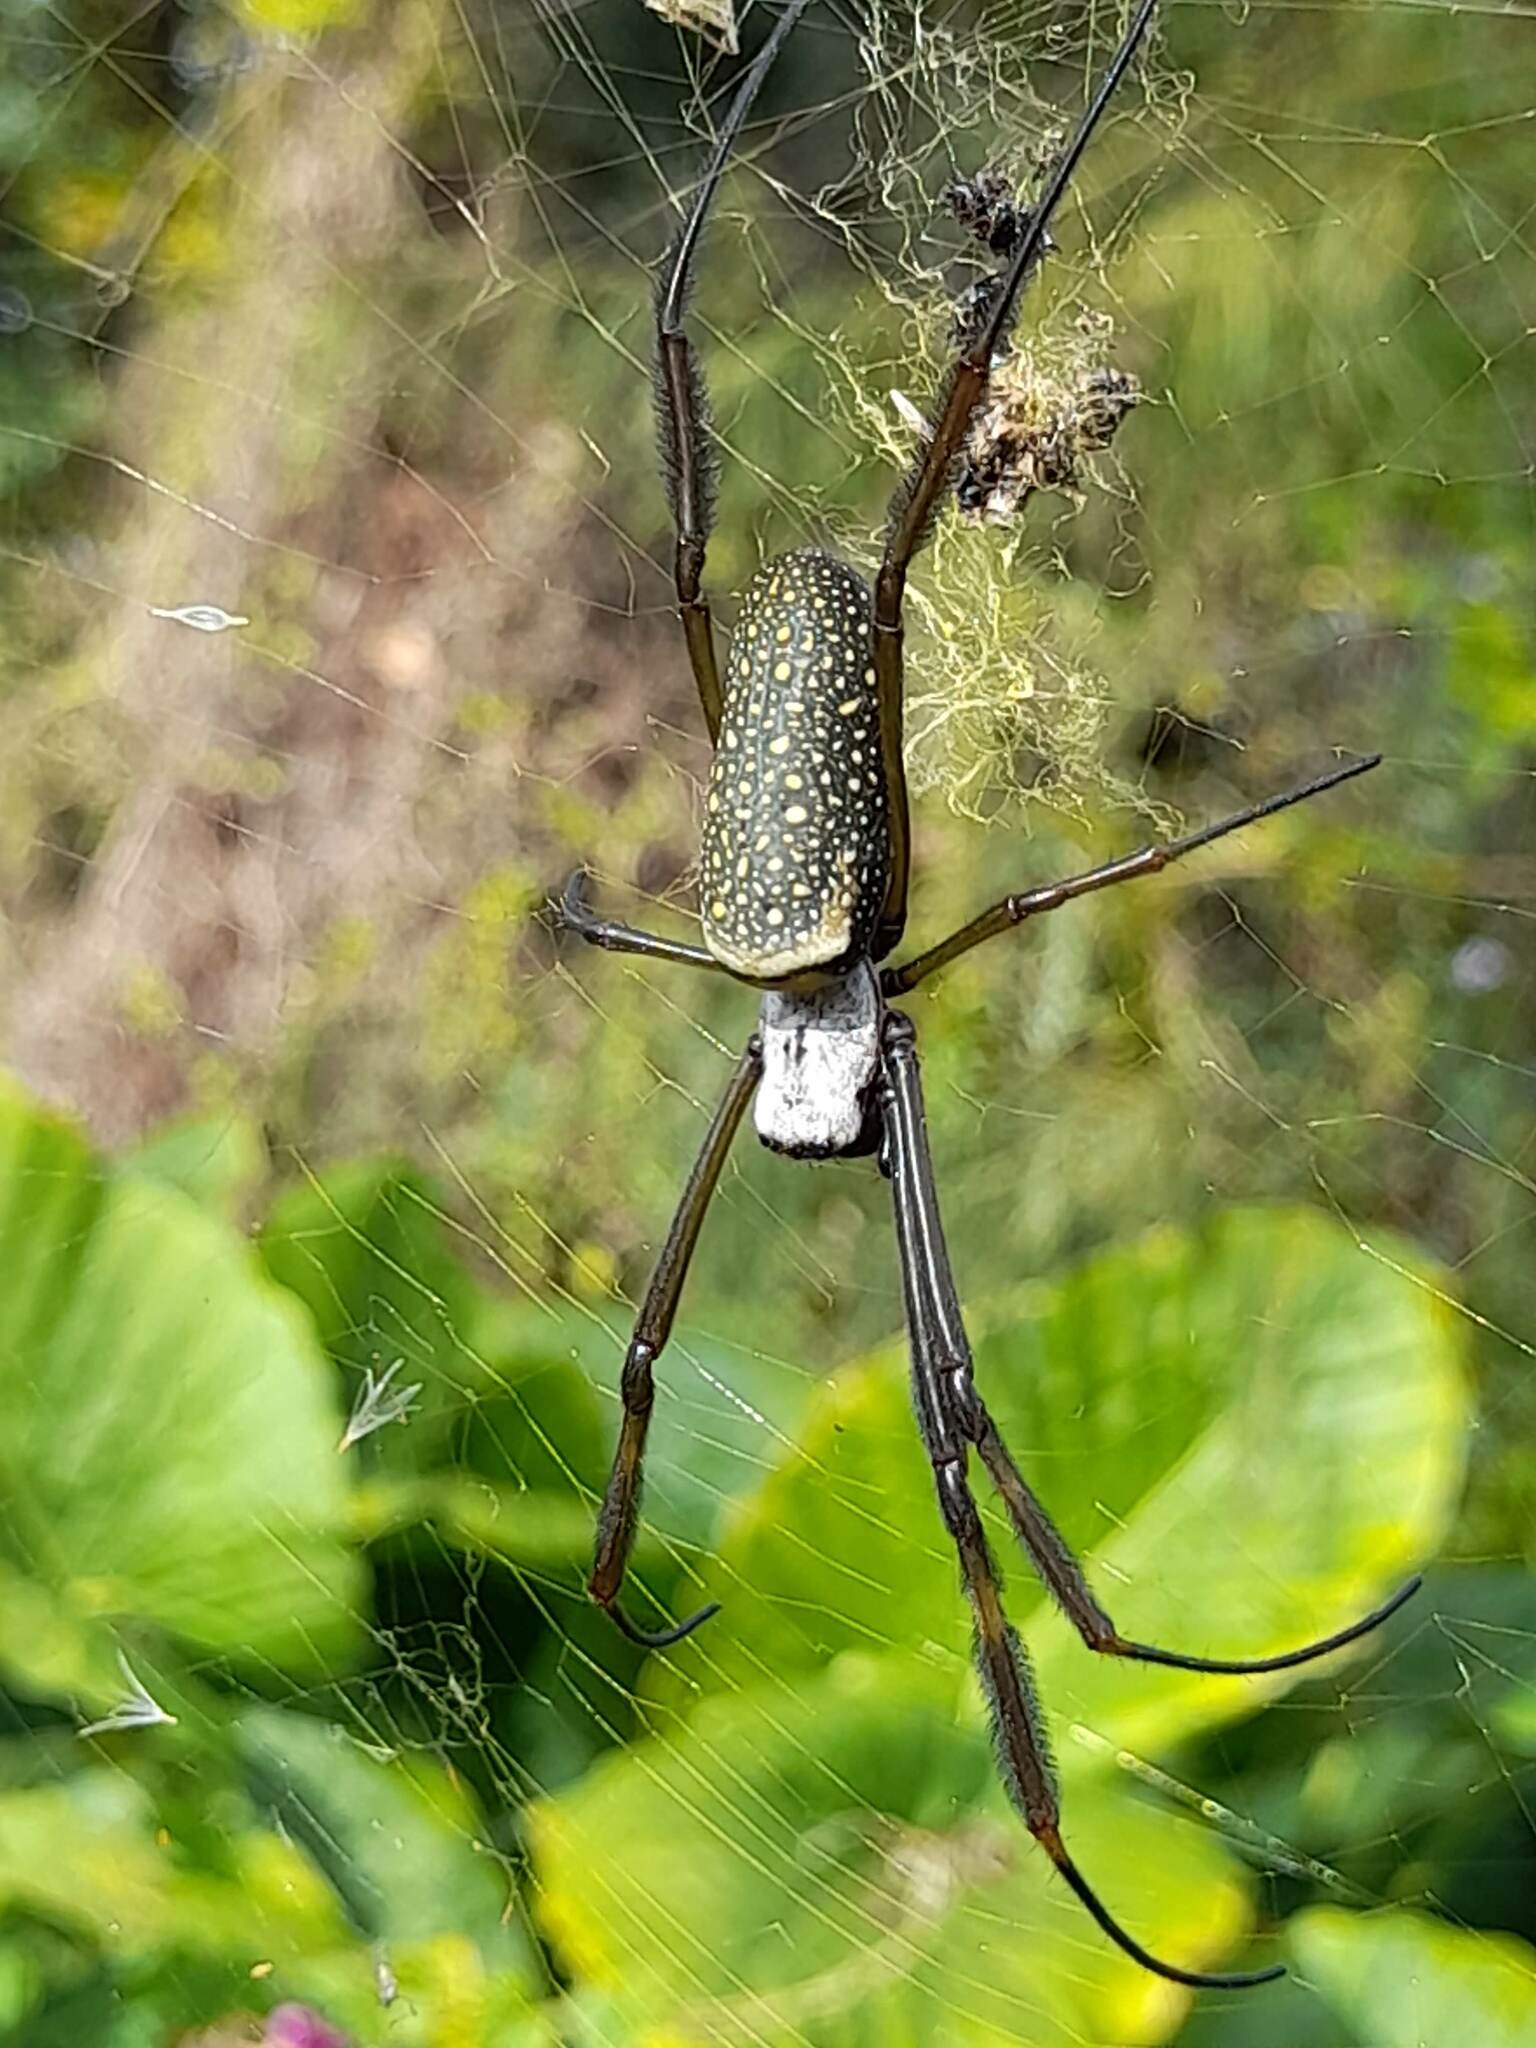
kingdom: Animalia
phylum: Arthropoda
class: Arachnida
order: Araneae
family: Araneidae
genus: Trichonephila
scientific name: Trichonephila clavipes
